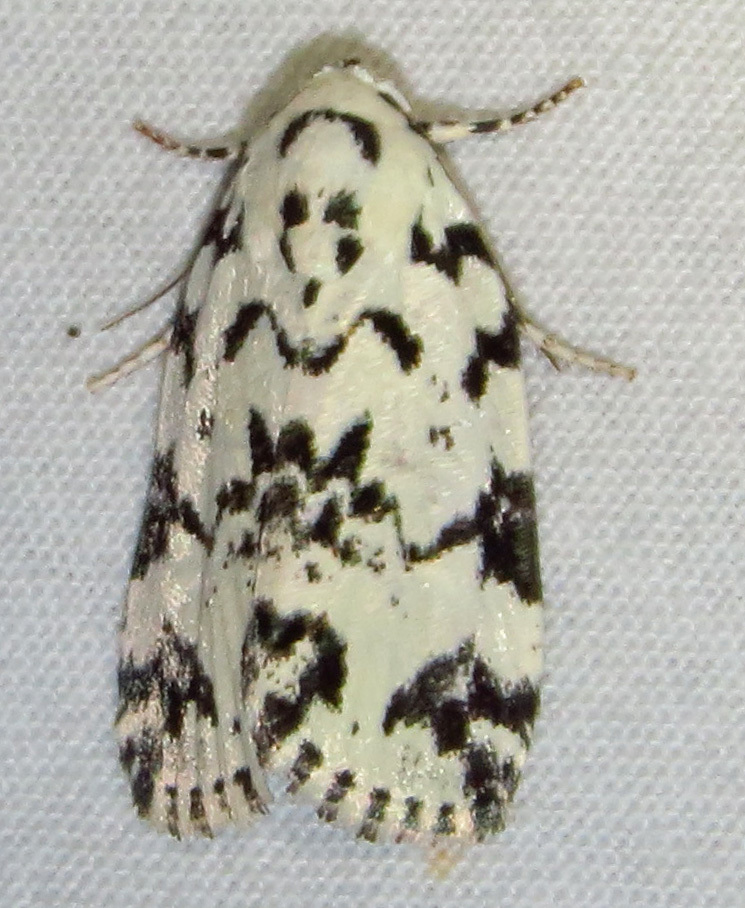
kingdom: Animalia
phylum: Arthropoda
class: Insecta
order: Lepidoptera
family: Noctuidae
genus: Polygrammate
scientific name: Polygrammate hebraeicum
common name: Hebrew moth
